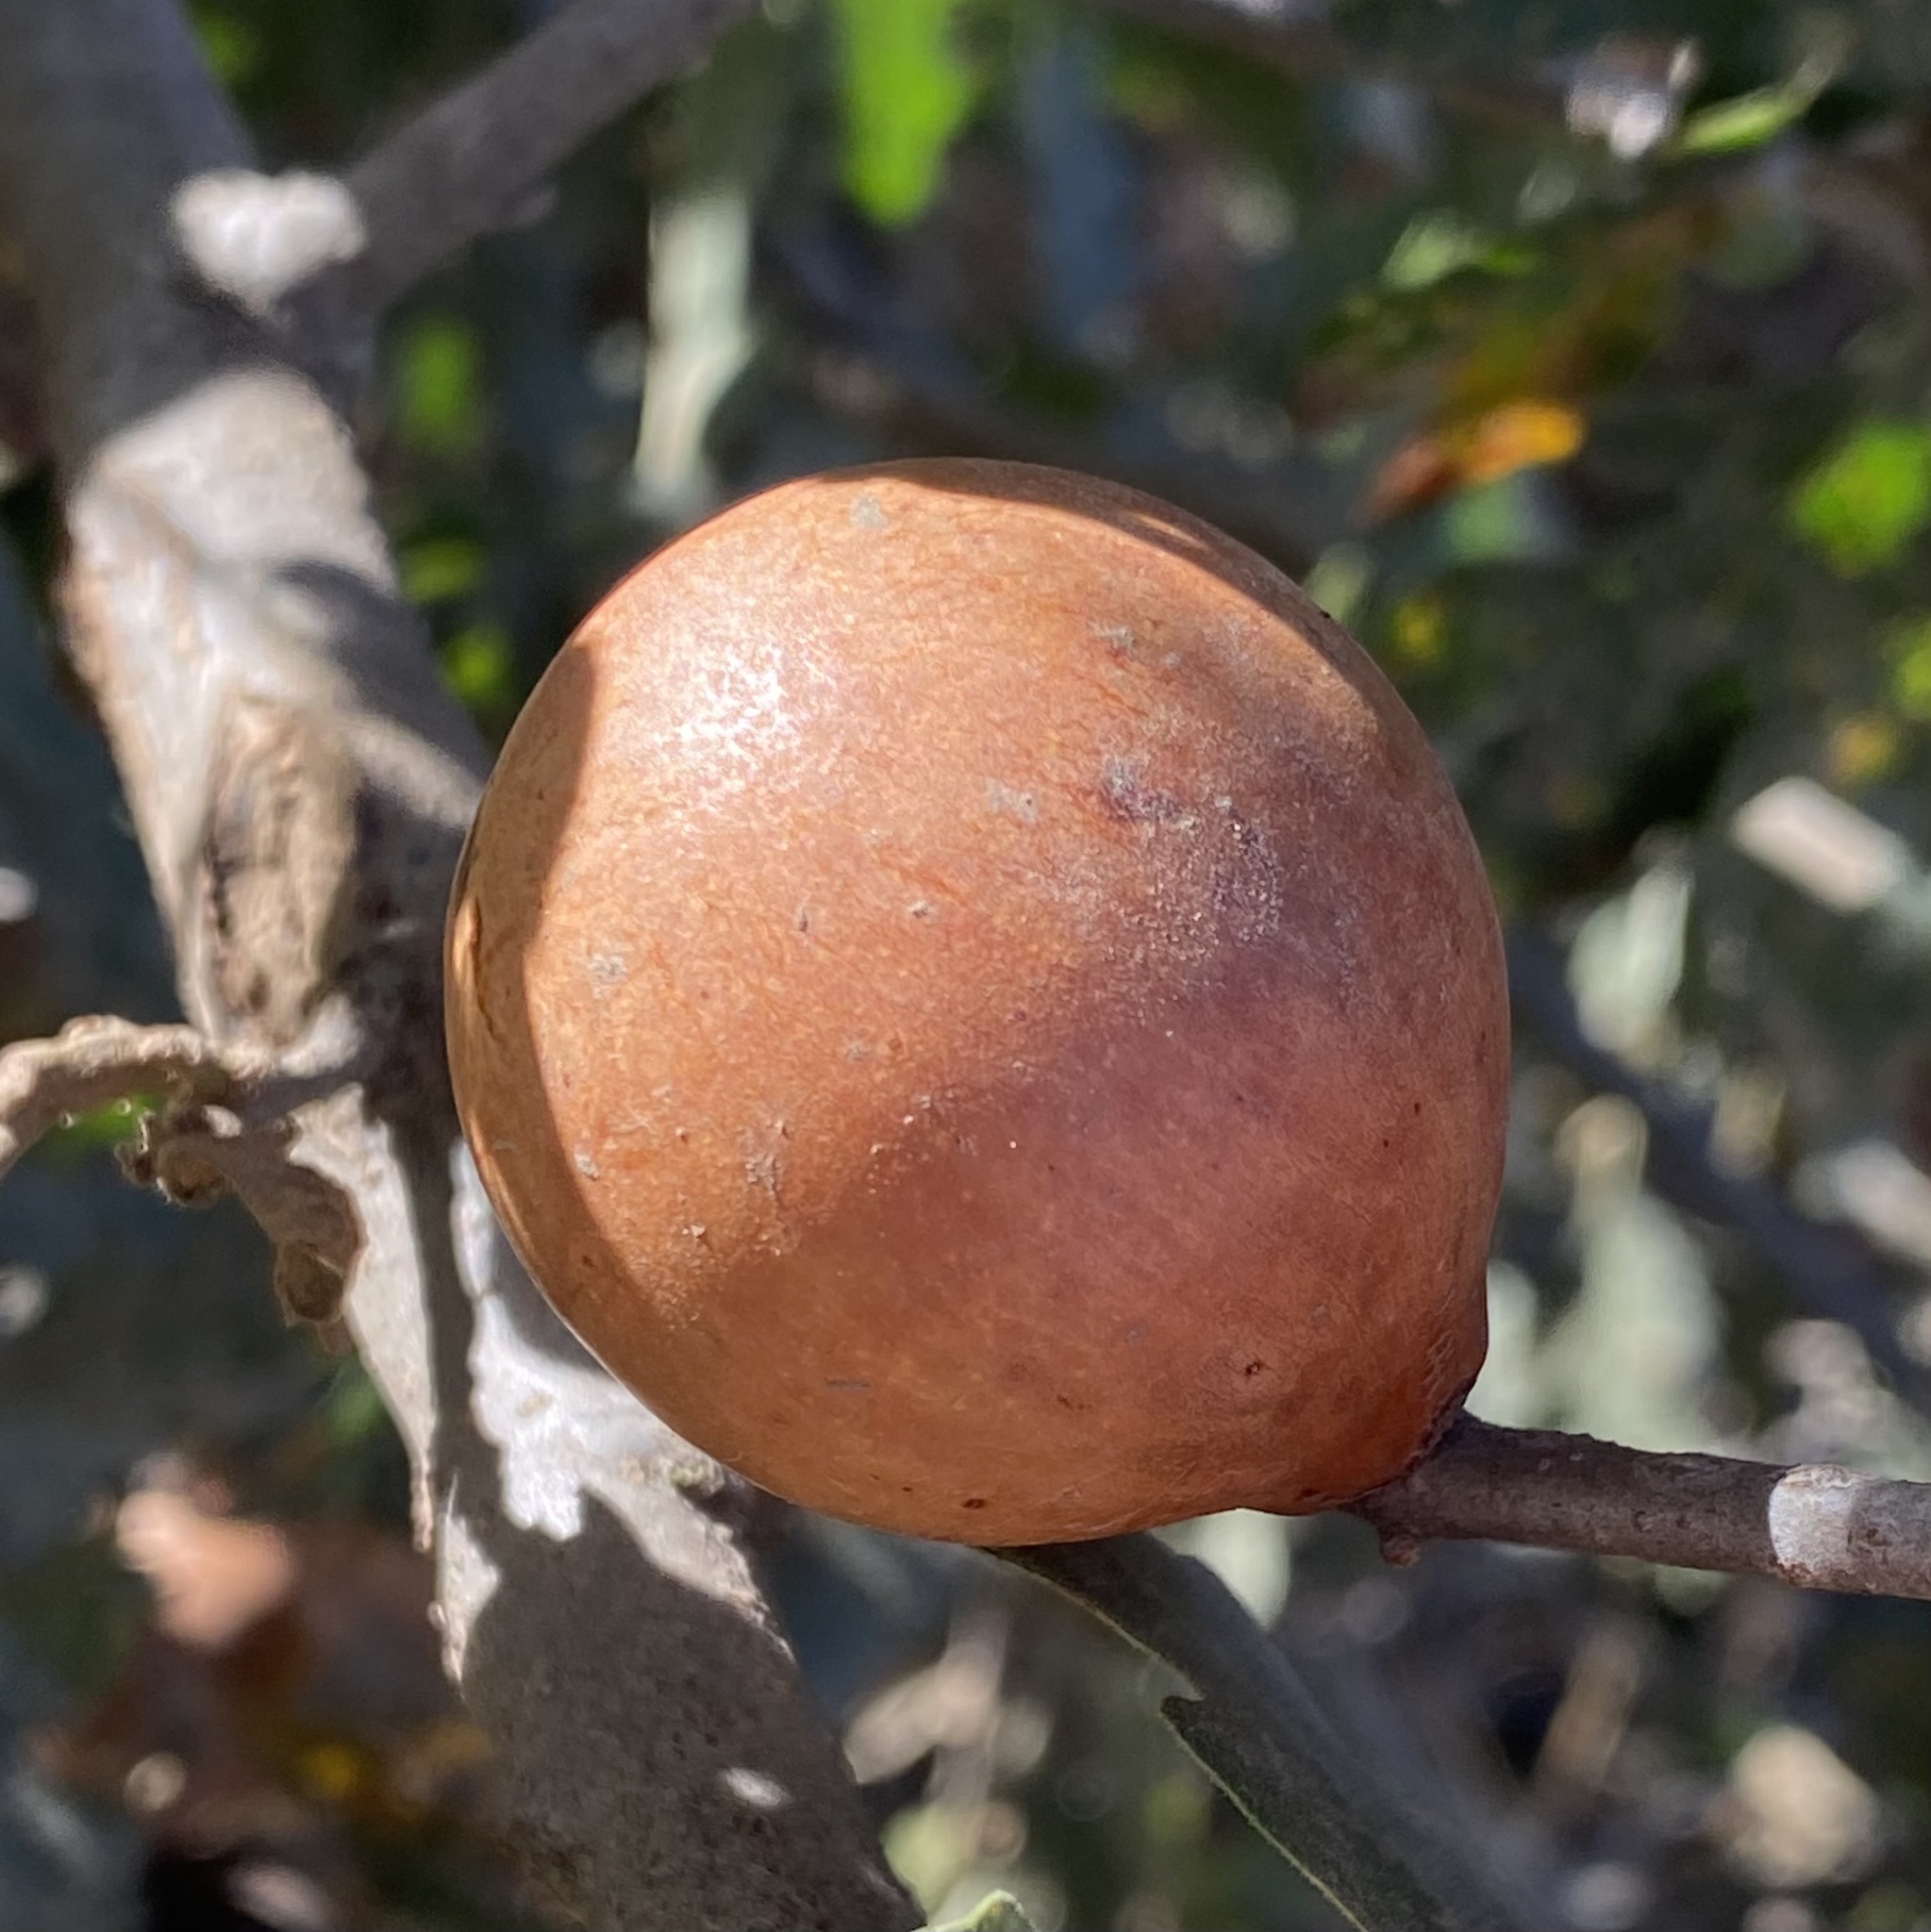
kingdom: Animalia
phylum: Arthropoda
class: Insecta
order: Hymenoptera
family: Cynipidae
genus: Andricus
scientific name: Andricus quercuscalifornicus
